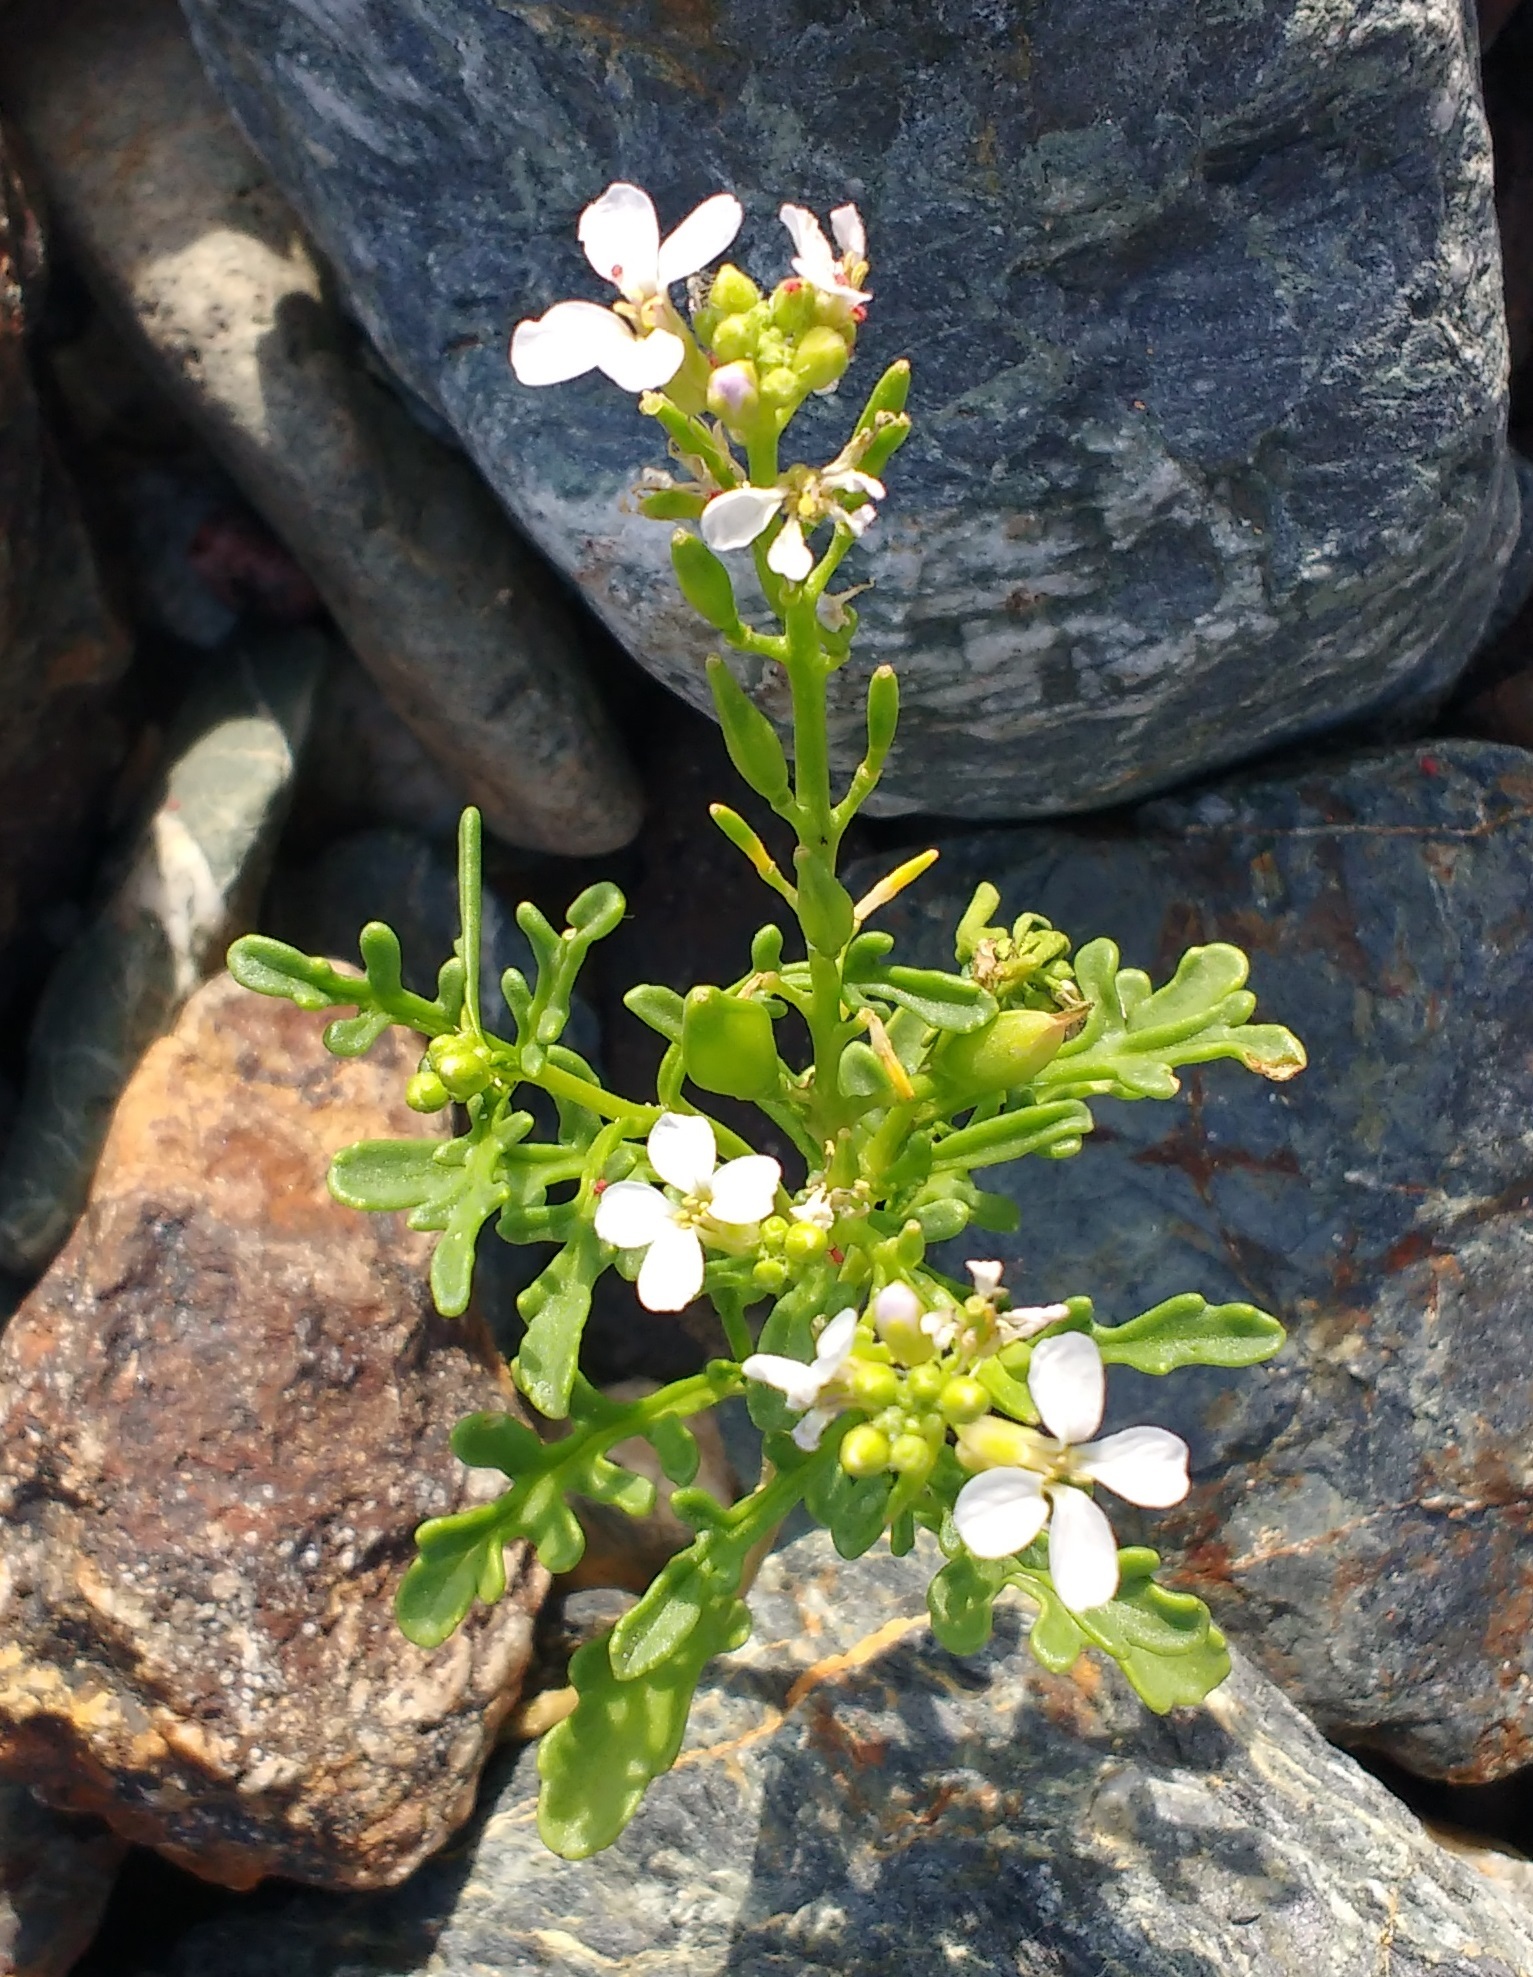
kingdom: Plantae
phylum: Tracheophyta
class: Magnoliopsida
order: Brassicales
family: Brassicaceae
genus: Cakile
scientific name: Cakile maritima
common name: Sea rocket
